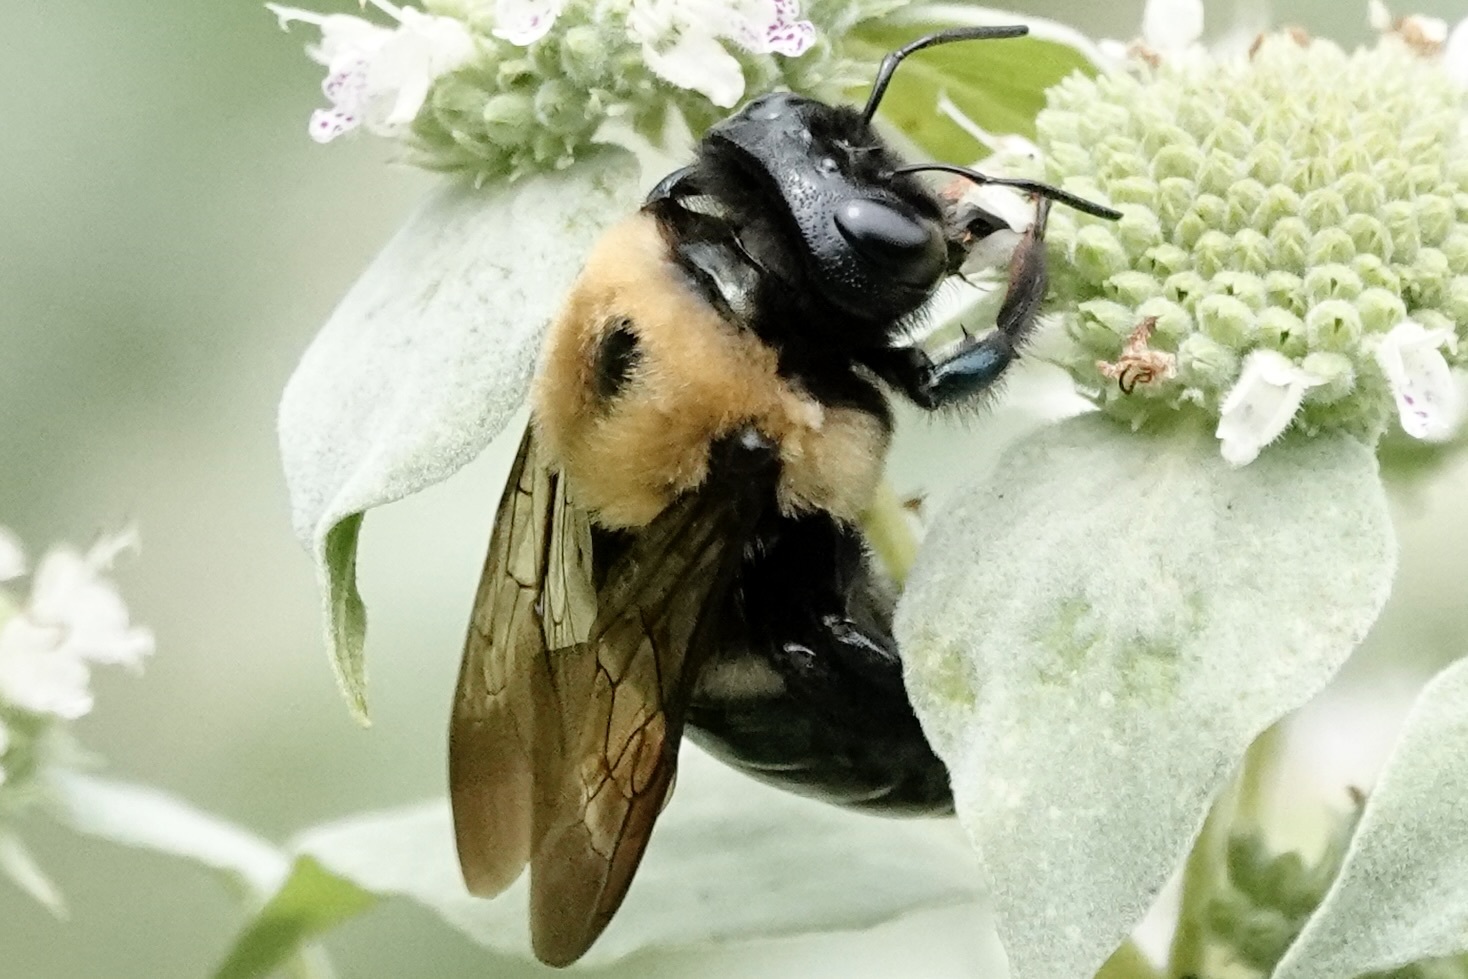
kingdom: Animalia
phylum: Arthropoda
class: Insecta
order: Hymenoptera
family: Apidae
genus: Xylocopa
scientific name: Xylocopa virginica
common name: Carpenter bee
